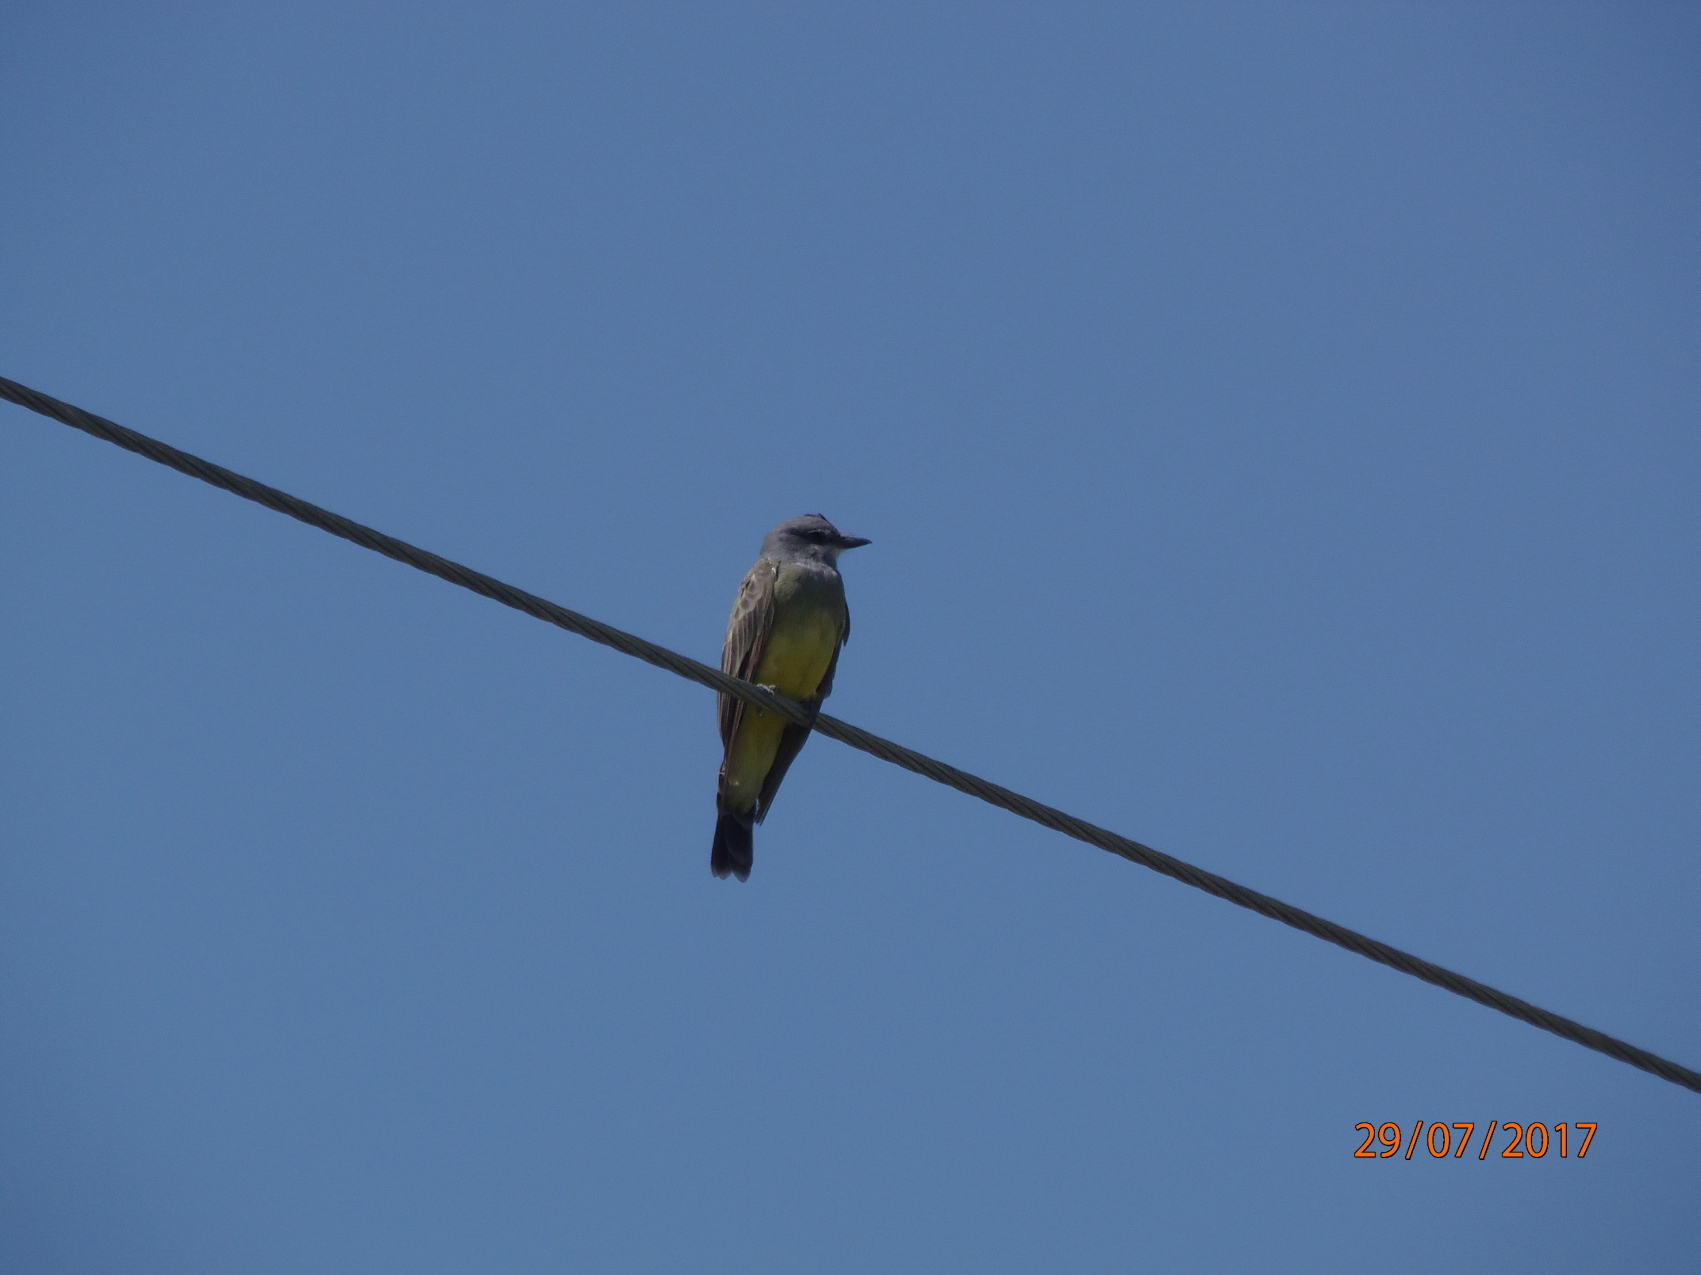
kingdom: Animalia
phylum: Chordata
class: Aves
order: Passeriformes
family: Tyrannidae
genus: Tyrannus
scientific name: Tyrannus vociferans
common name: Cassin's kingbird
